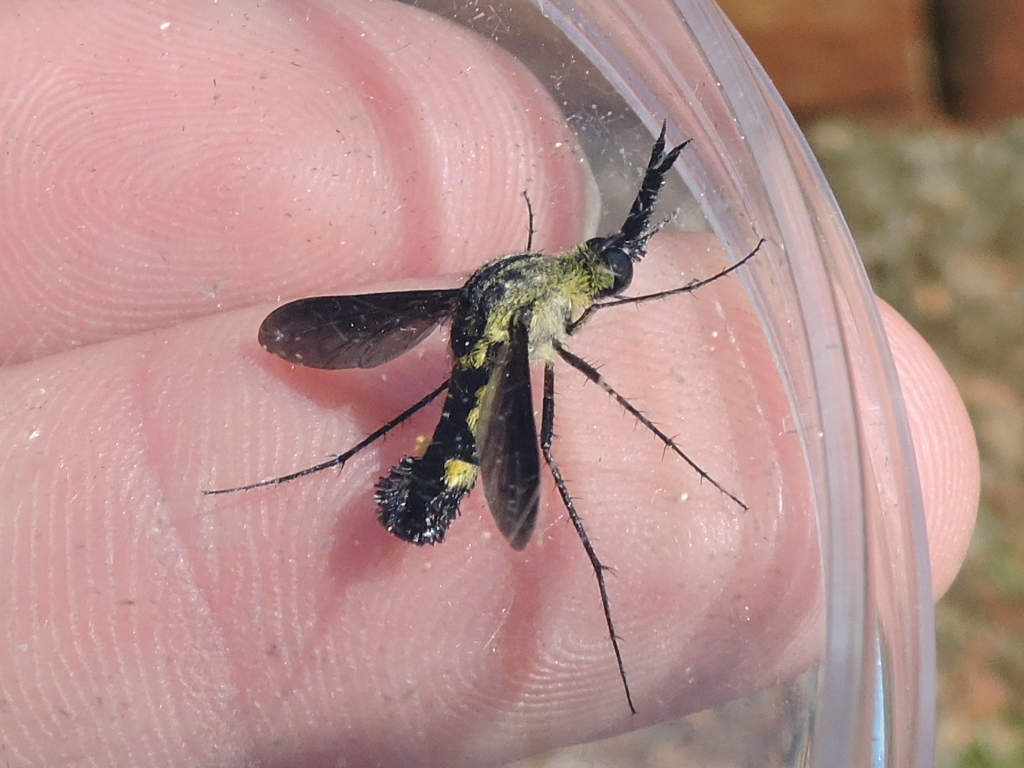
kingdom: Animalia
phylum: Arthropoda
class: Insecta
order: Diptera
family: Bombyliidae
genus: Lepidophora
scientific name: Lepidophora lepidocera
